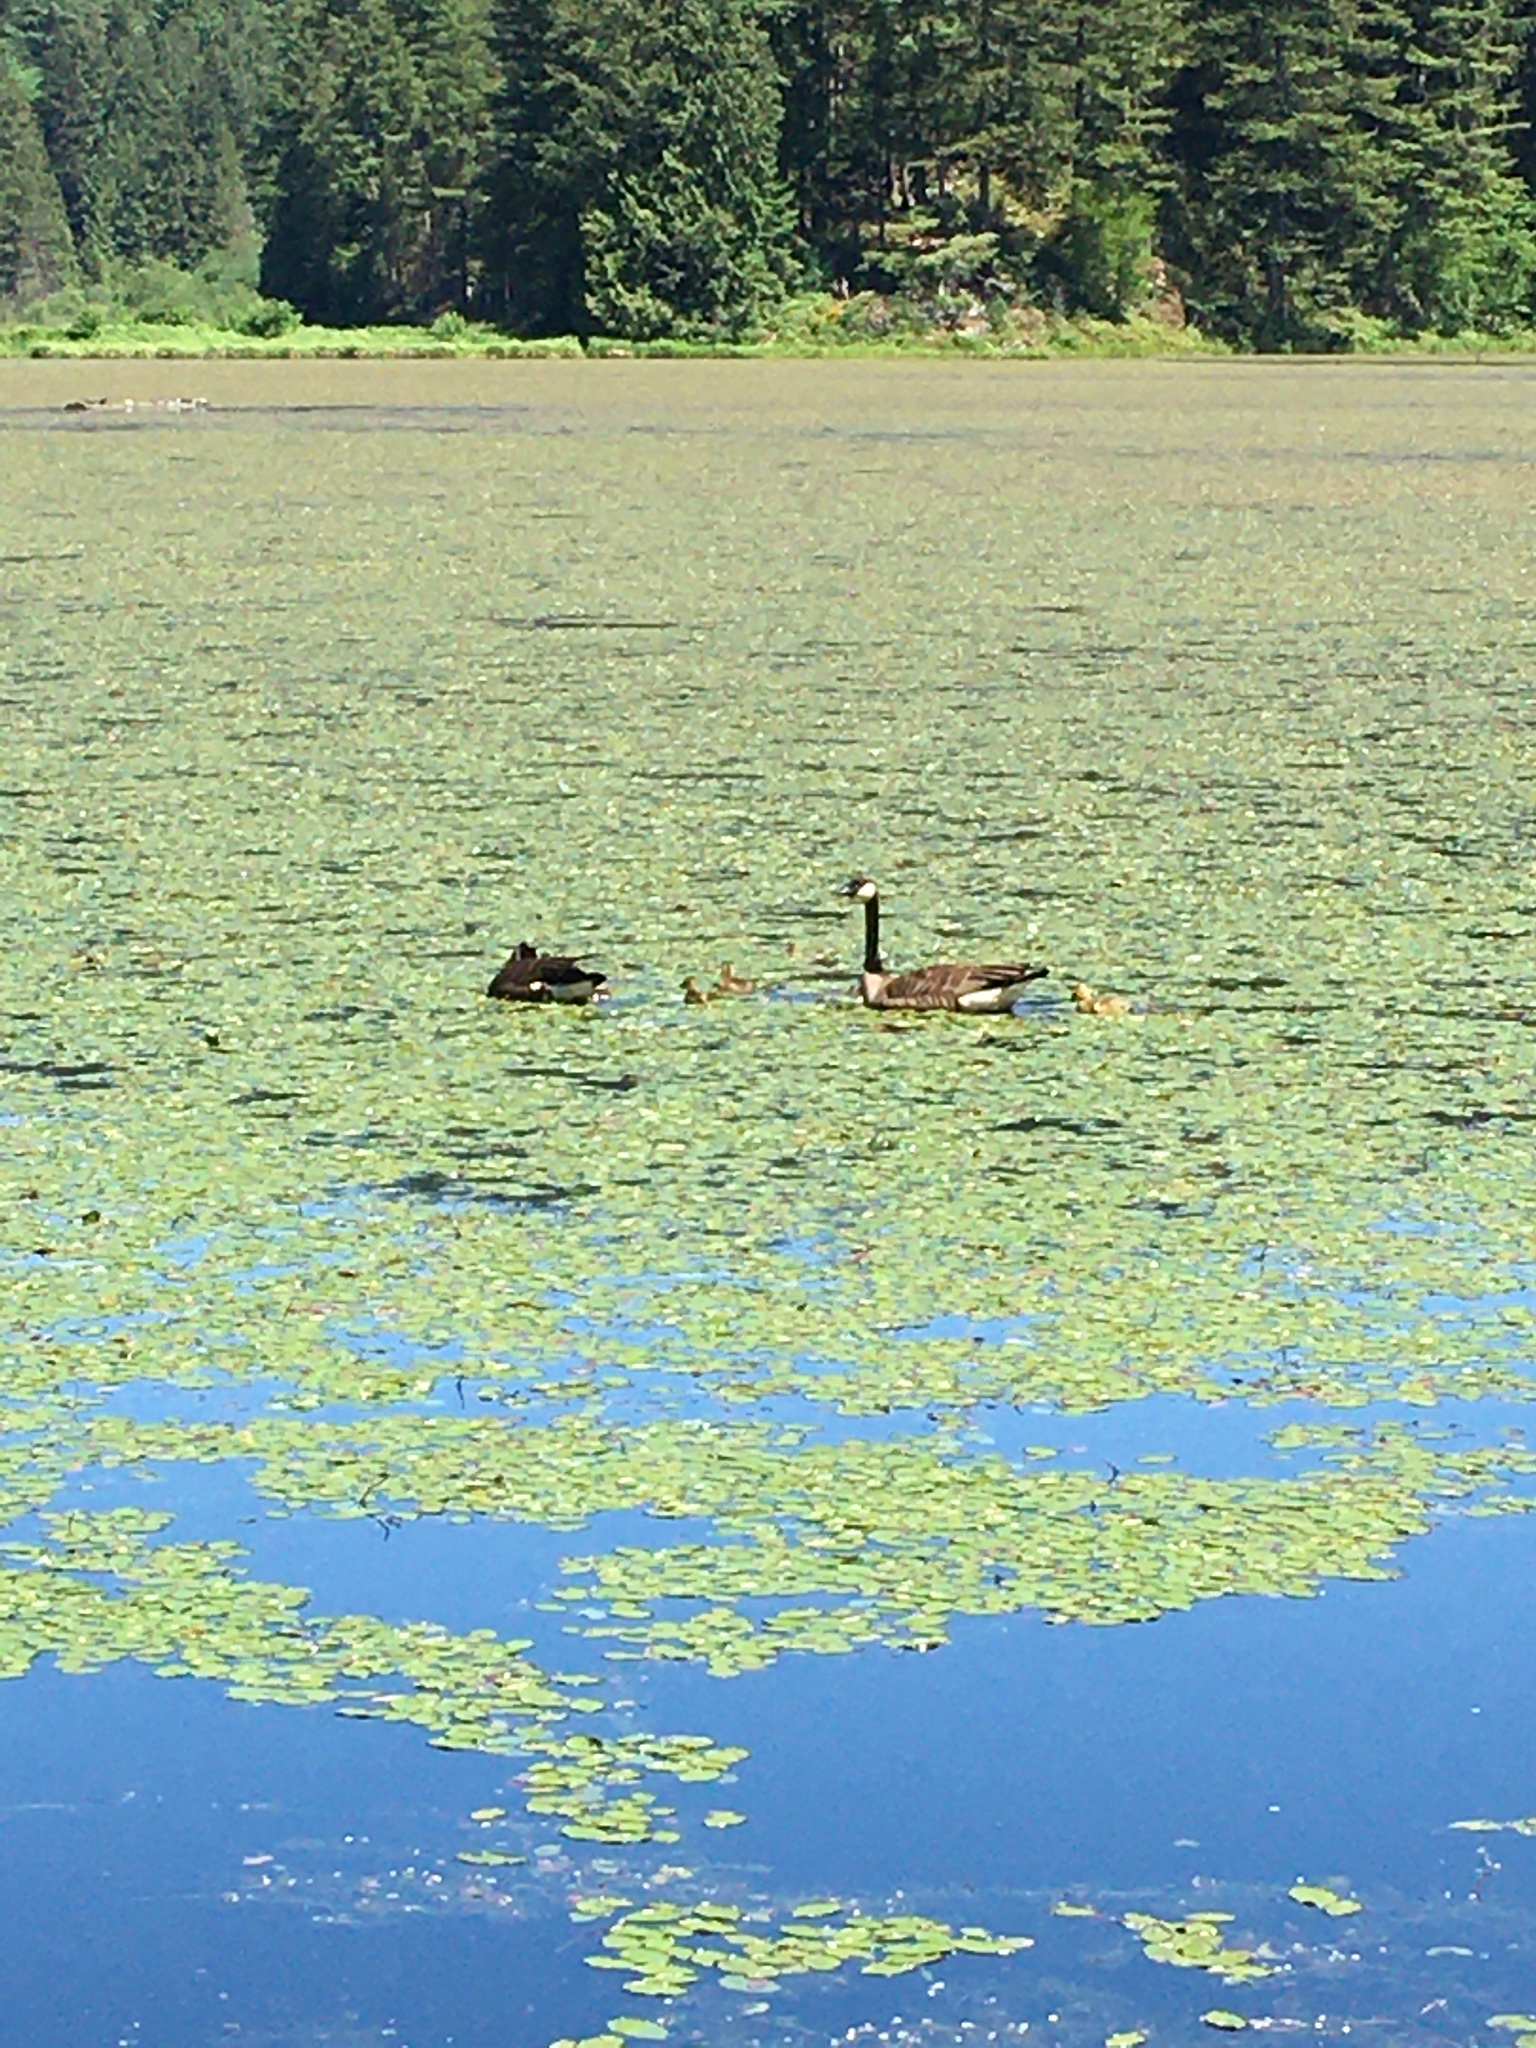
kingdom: Animalia
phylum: Chordata
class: Aves
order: Anseriformes
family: Anatidae
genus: Branta
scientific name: Branta canadensis
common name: Canada goose
